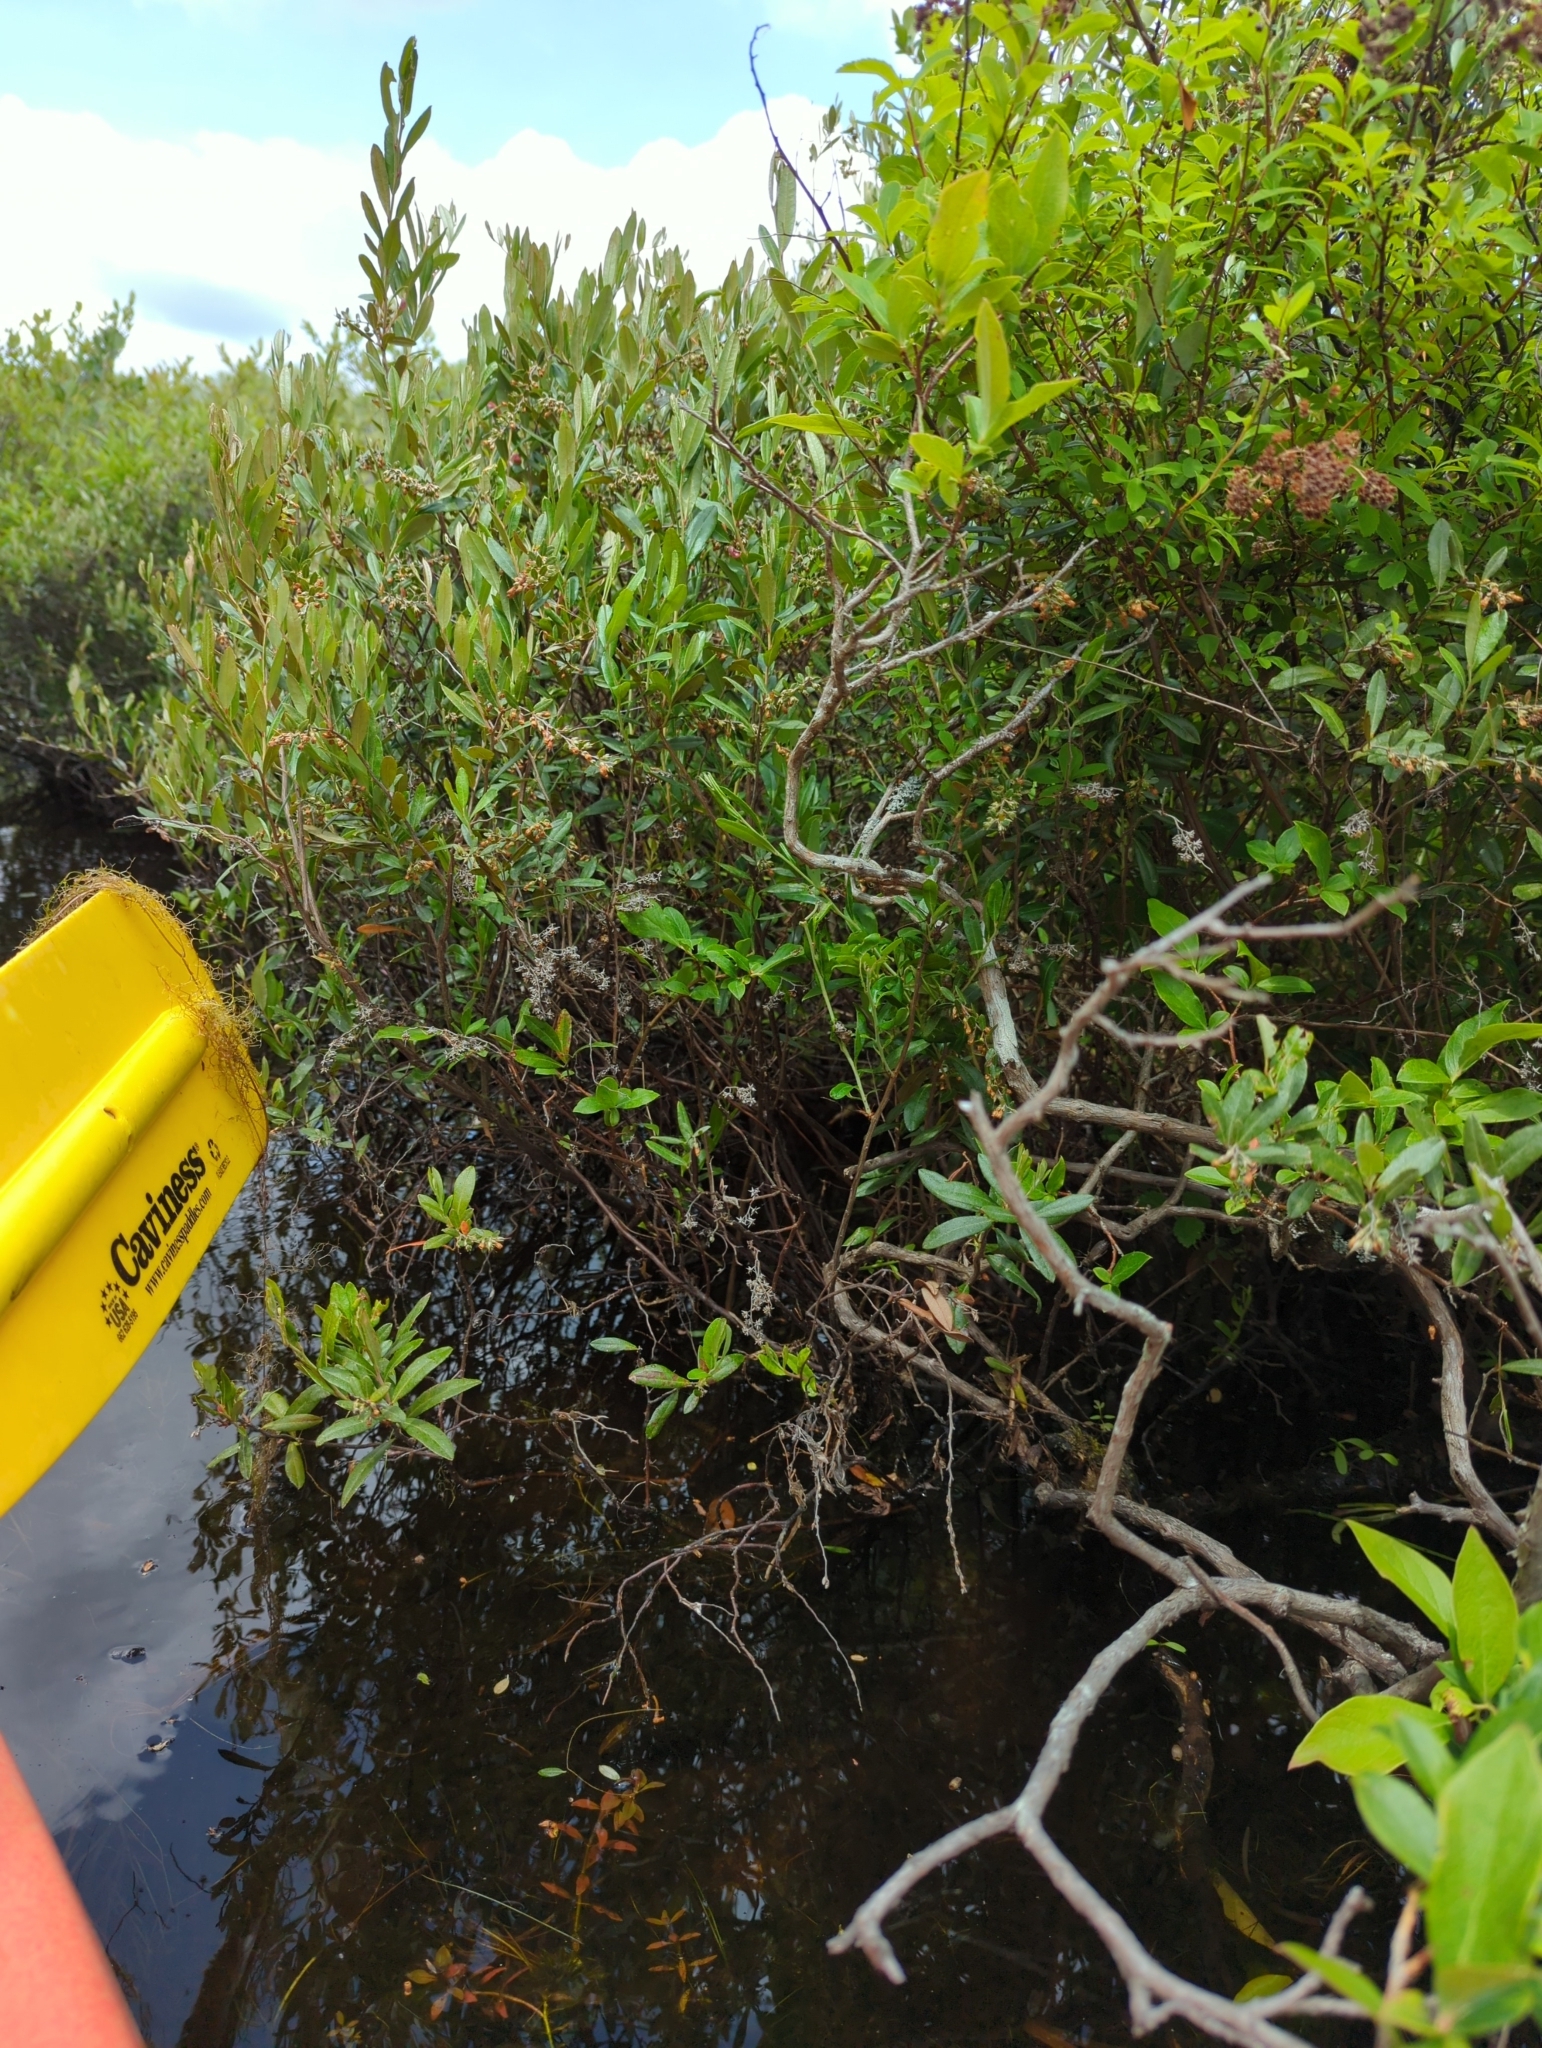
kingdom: Plantae
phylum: Tracheophyta
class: Magnoliopsida
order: Ericales
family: Ericaceae
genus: Chamaedaphne
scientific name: Chamaedaphne calyculata
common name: Leatherleaf
